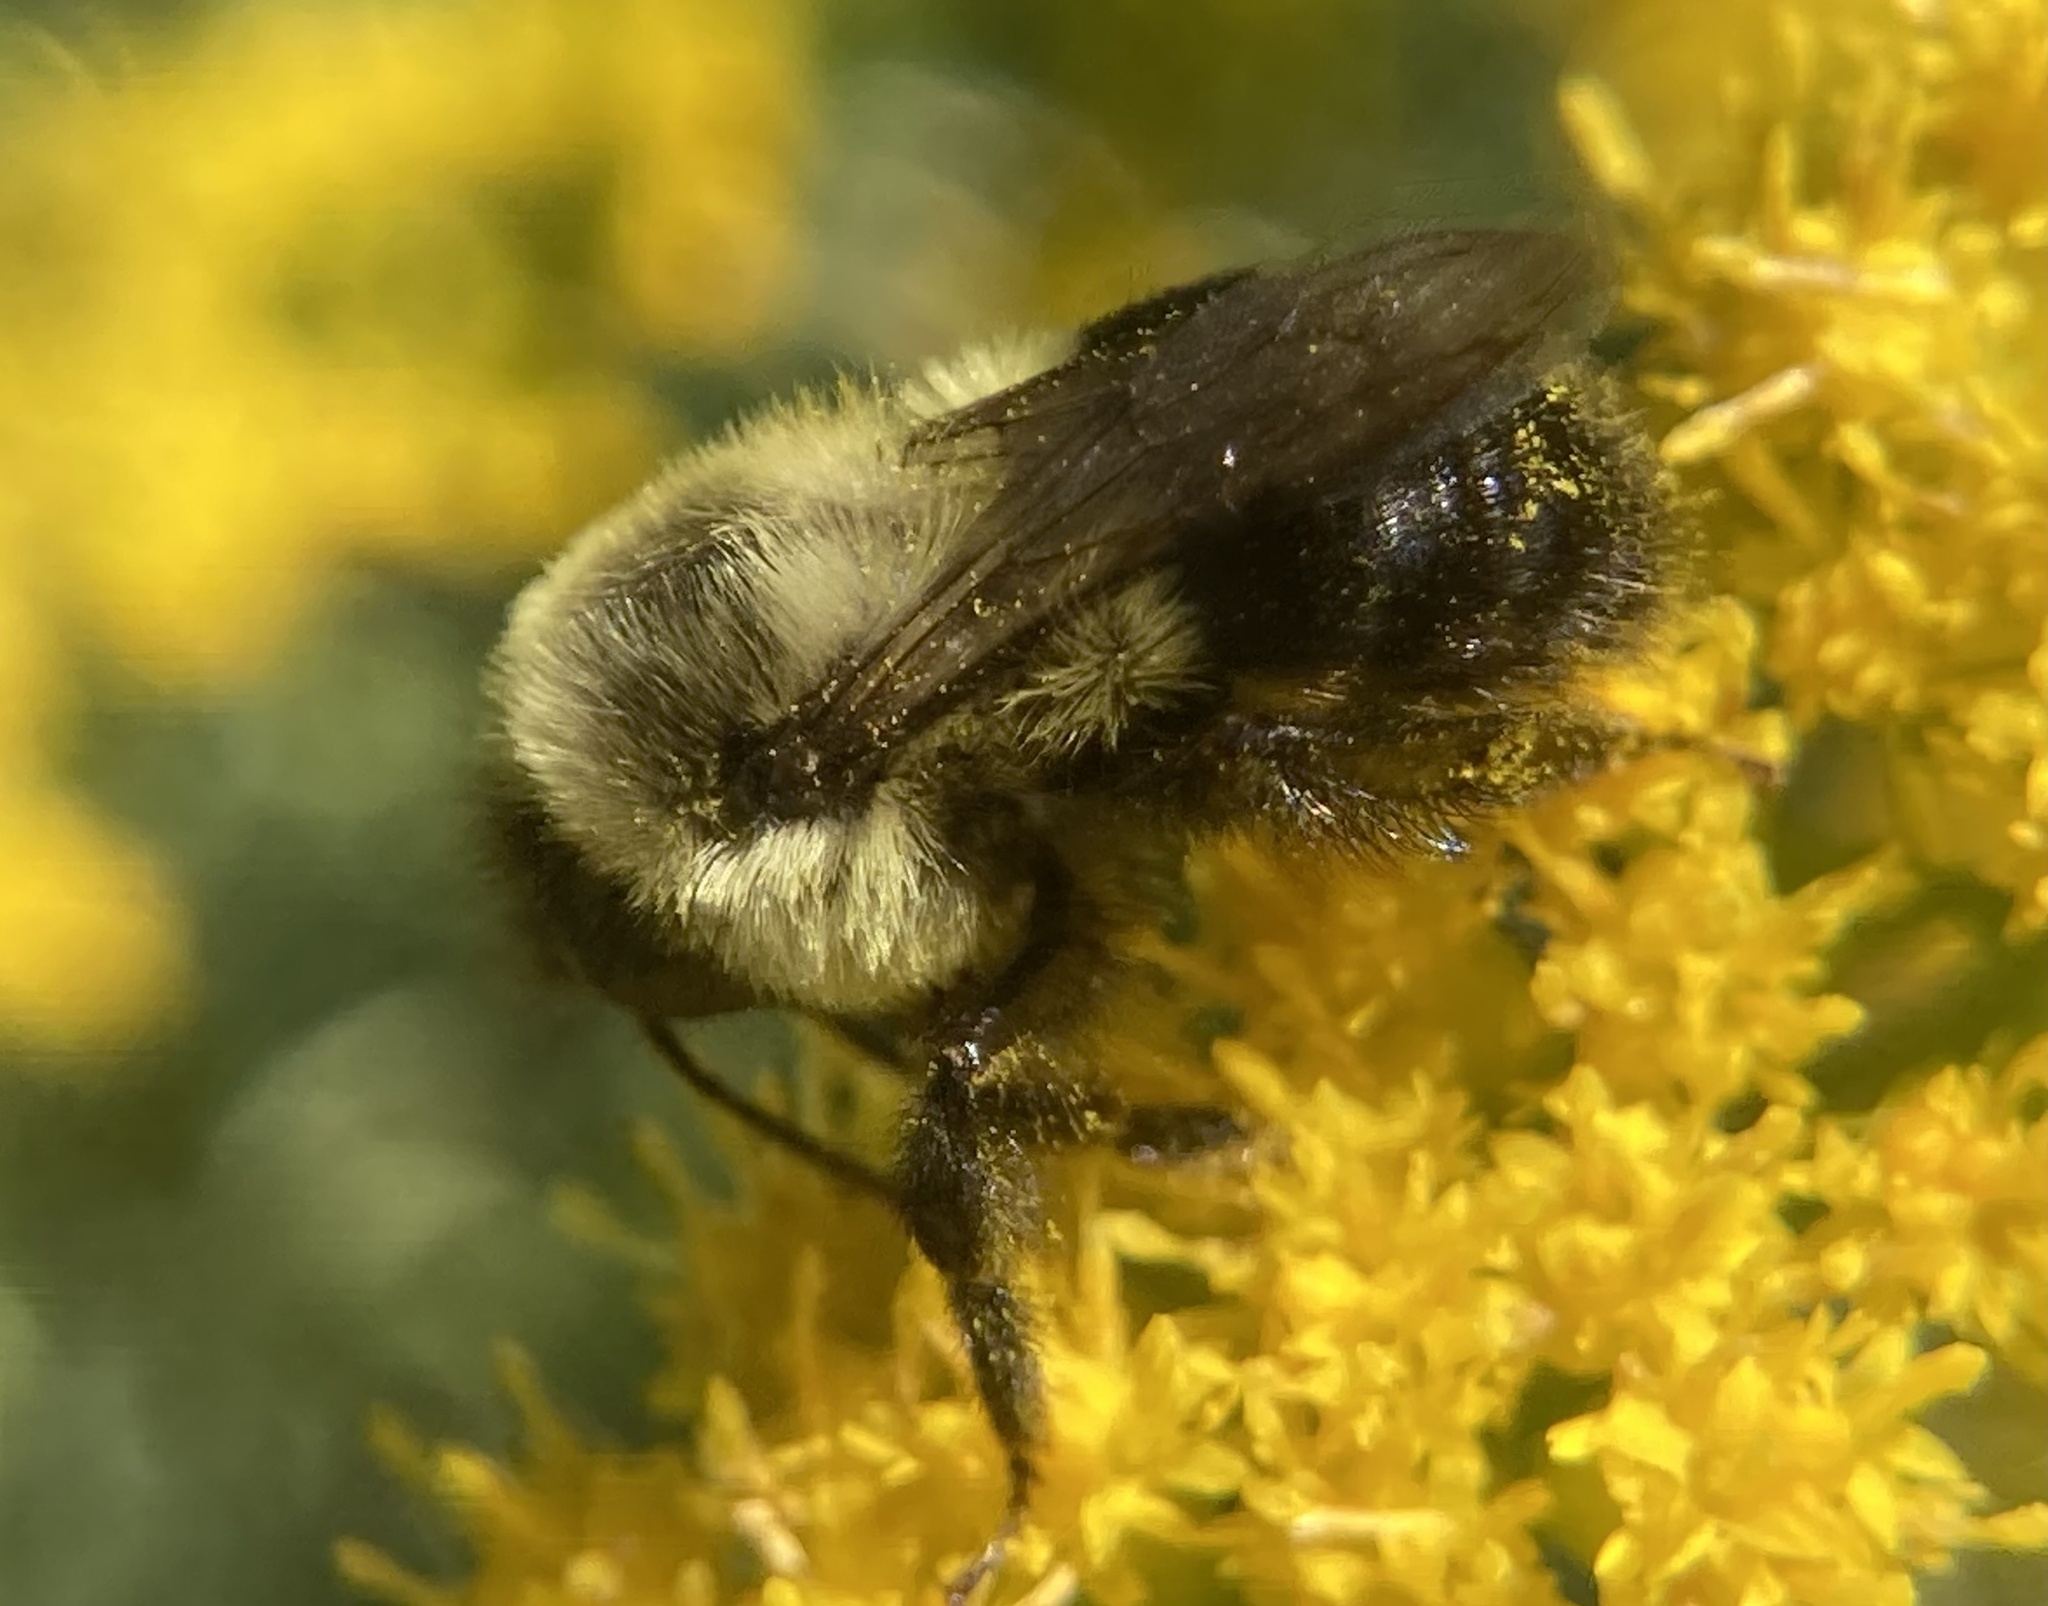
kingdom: Animalia
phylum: Arthropoda
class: Insecta
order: Hymenoptera
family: Apidae
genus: Bombus
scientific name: Bombus impatiens
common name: Common eastern bumble bee
